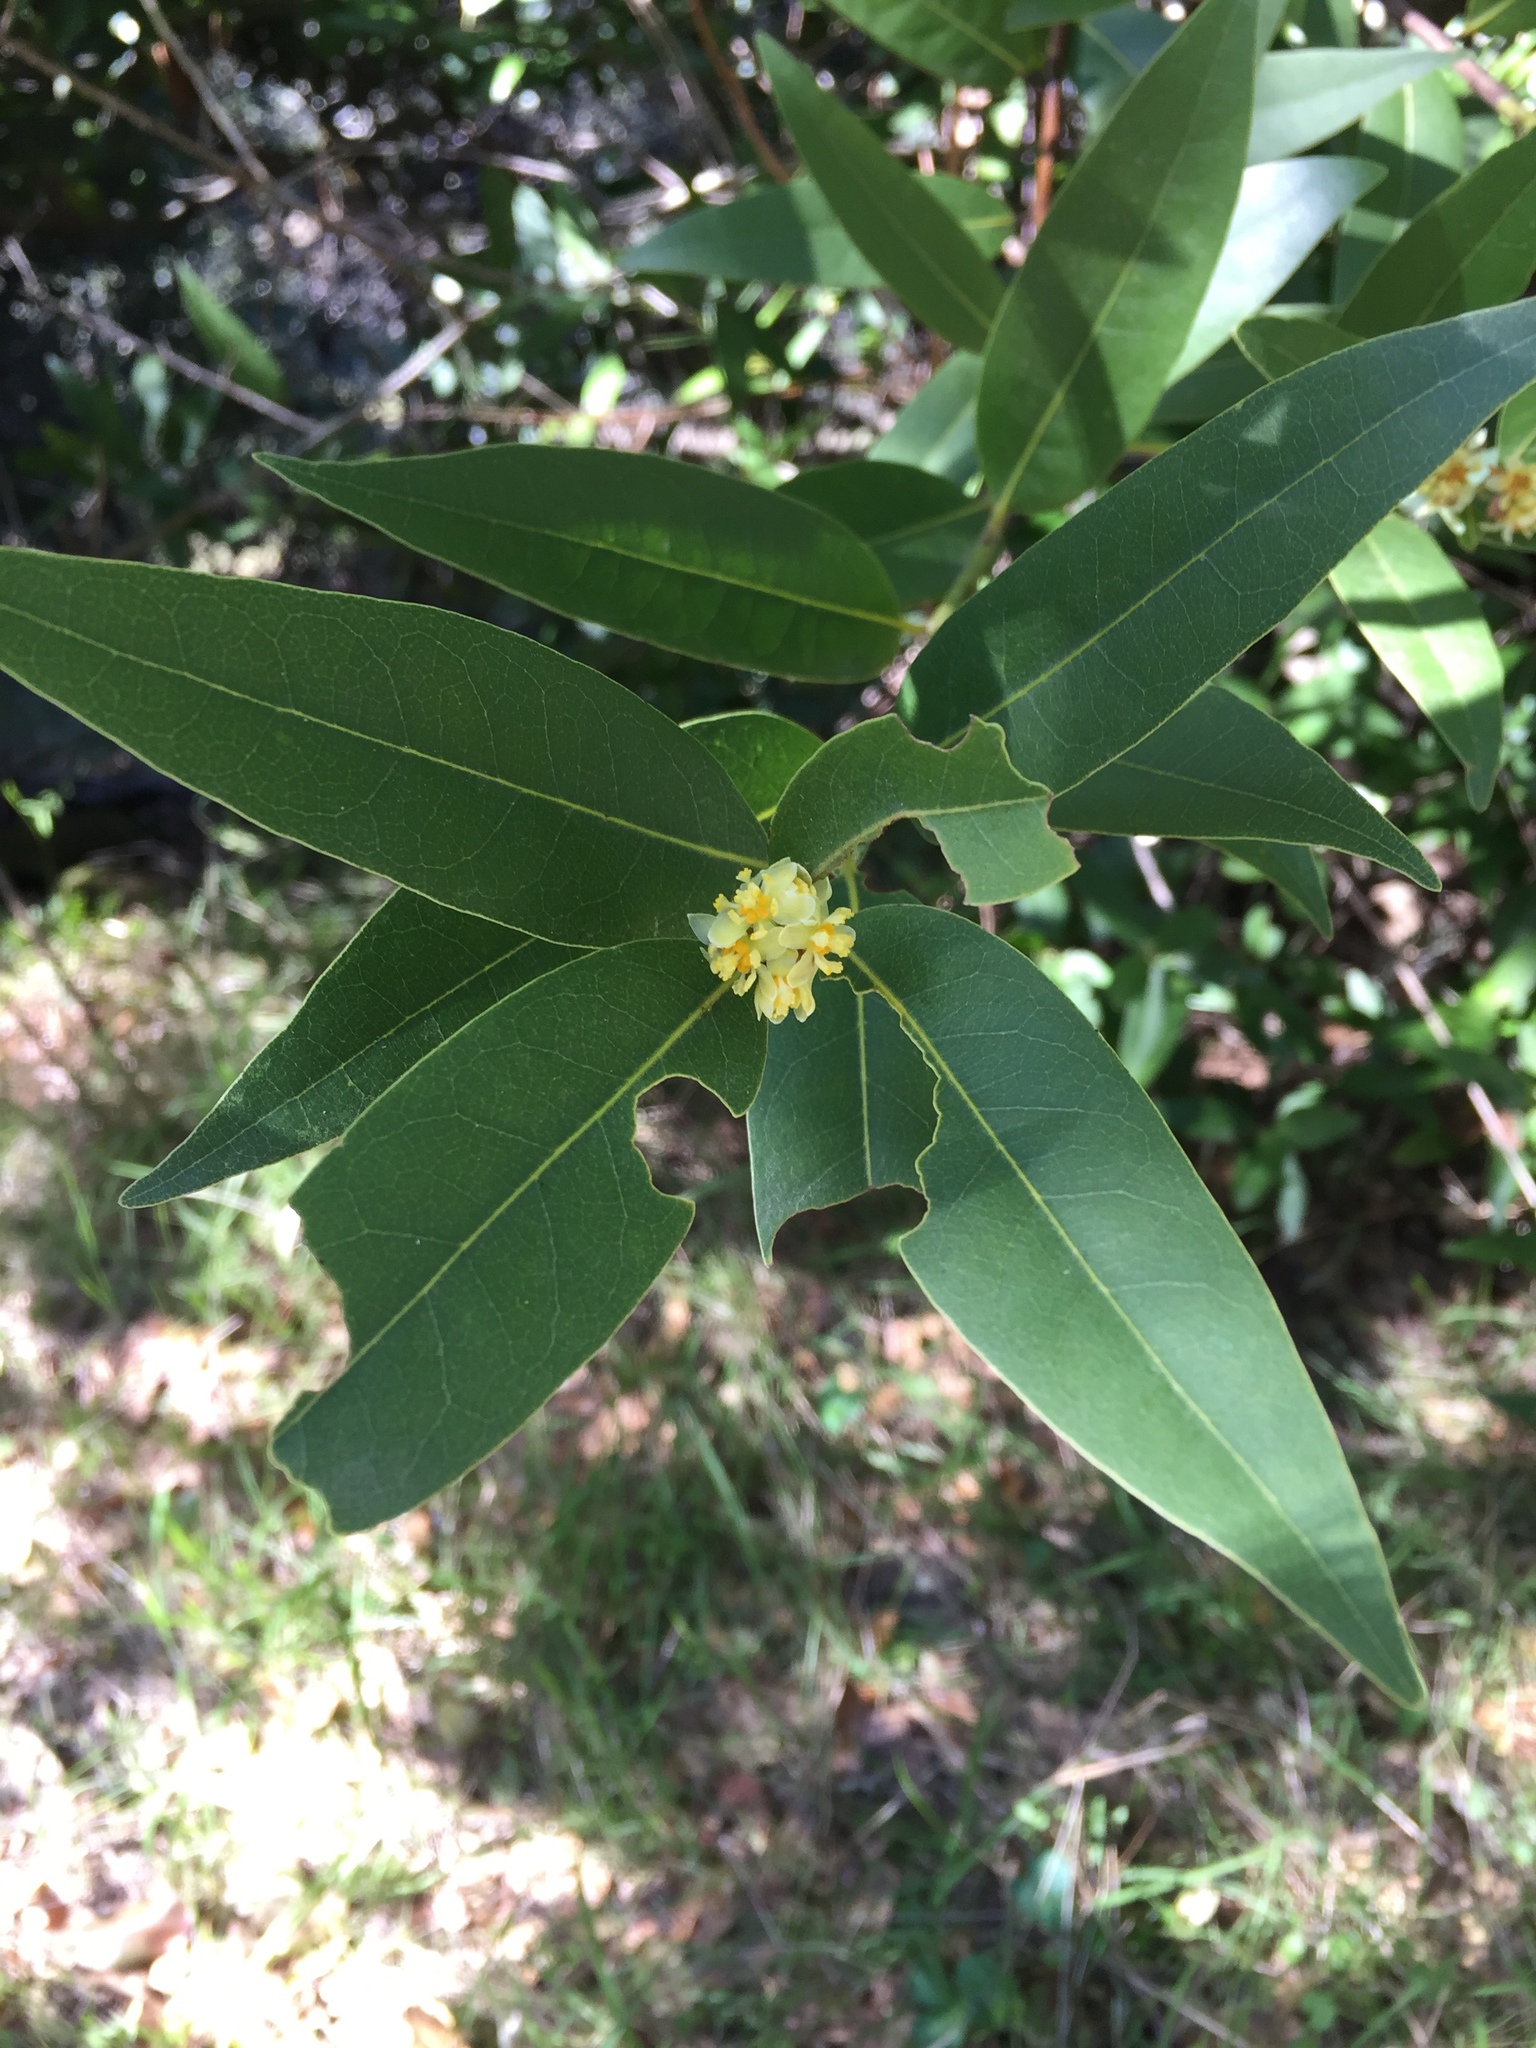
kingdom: Plantae
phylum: Tracheophyta
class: Magnoliopsida
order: Laurales
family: Lauraceae
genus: Umbellularia
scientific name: Umbellularia californica
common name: California bay
